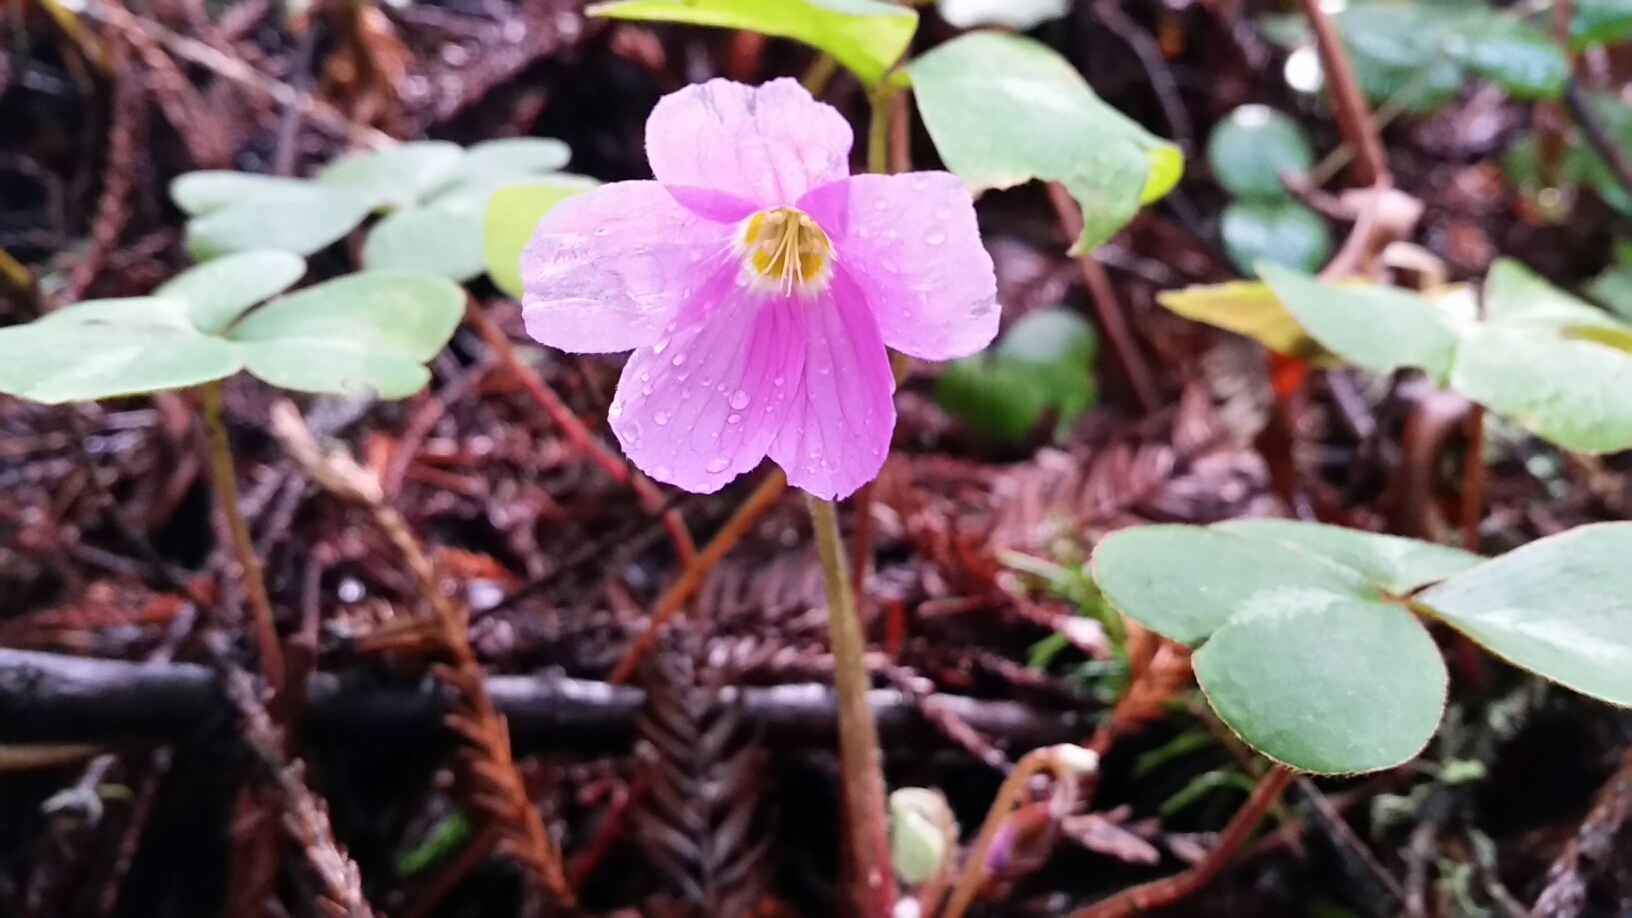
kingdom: Plantae
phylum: Tracheophyta
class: Magnoliopsida
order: Oxalidales
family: Oxalidaceae
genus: Oxalis
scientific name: Oxalis oregana
